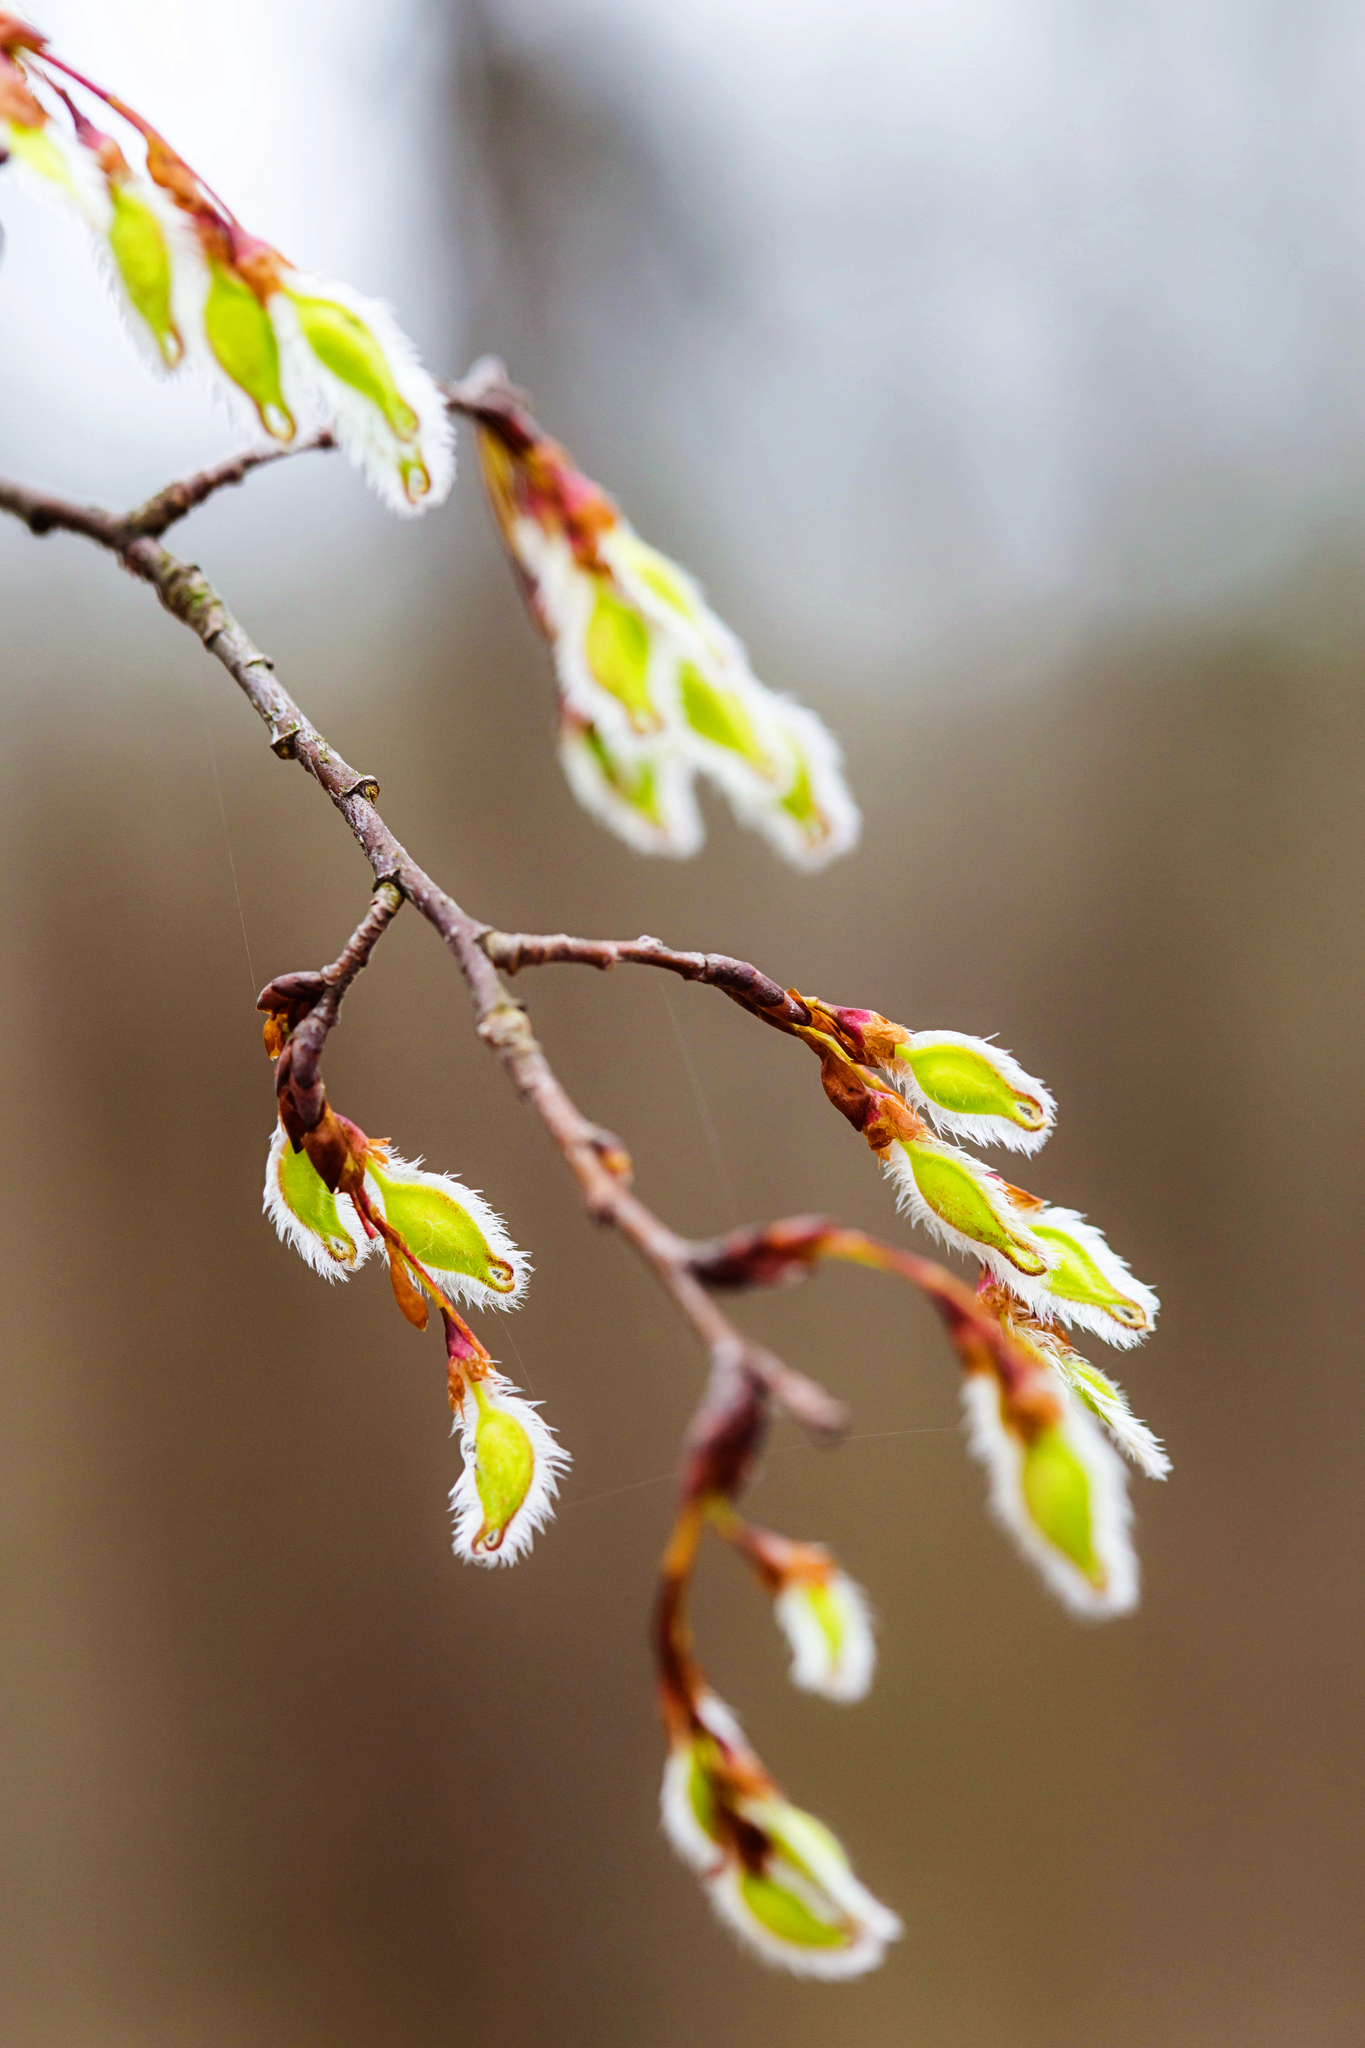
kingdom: Plantae
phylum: Tracheophyta
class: Magnoliopsida
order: Rosales
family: Ulmaceae
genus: Ulmus
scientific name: Ulmus americana
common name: American elm
